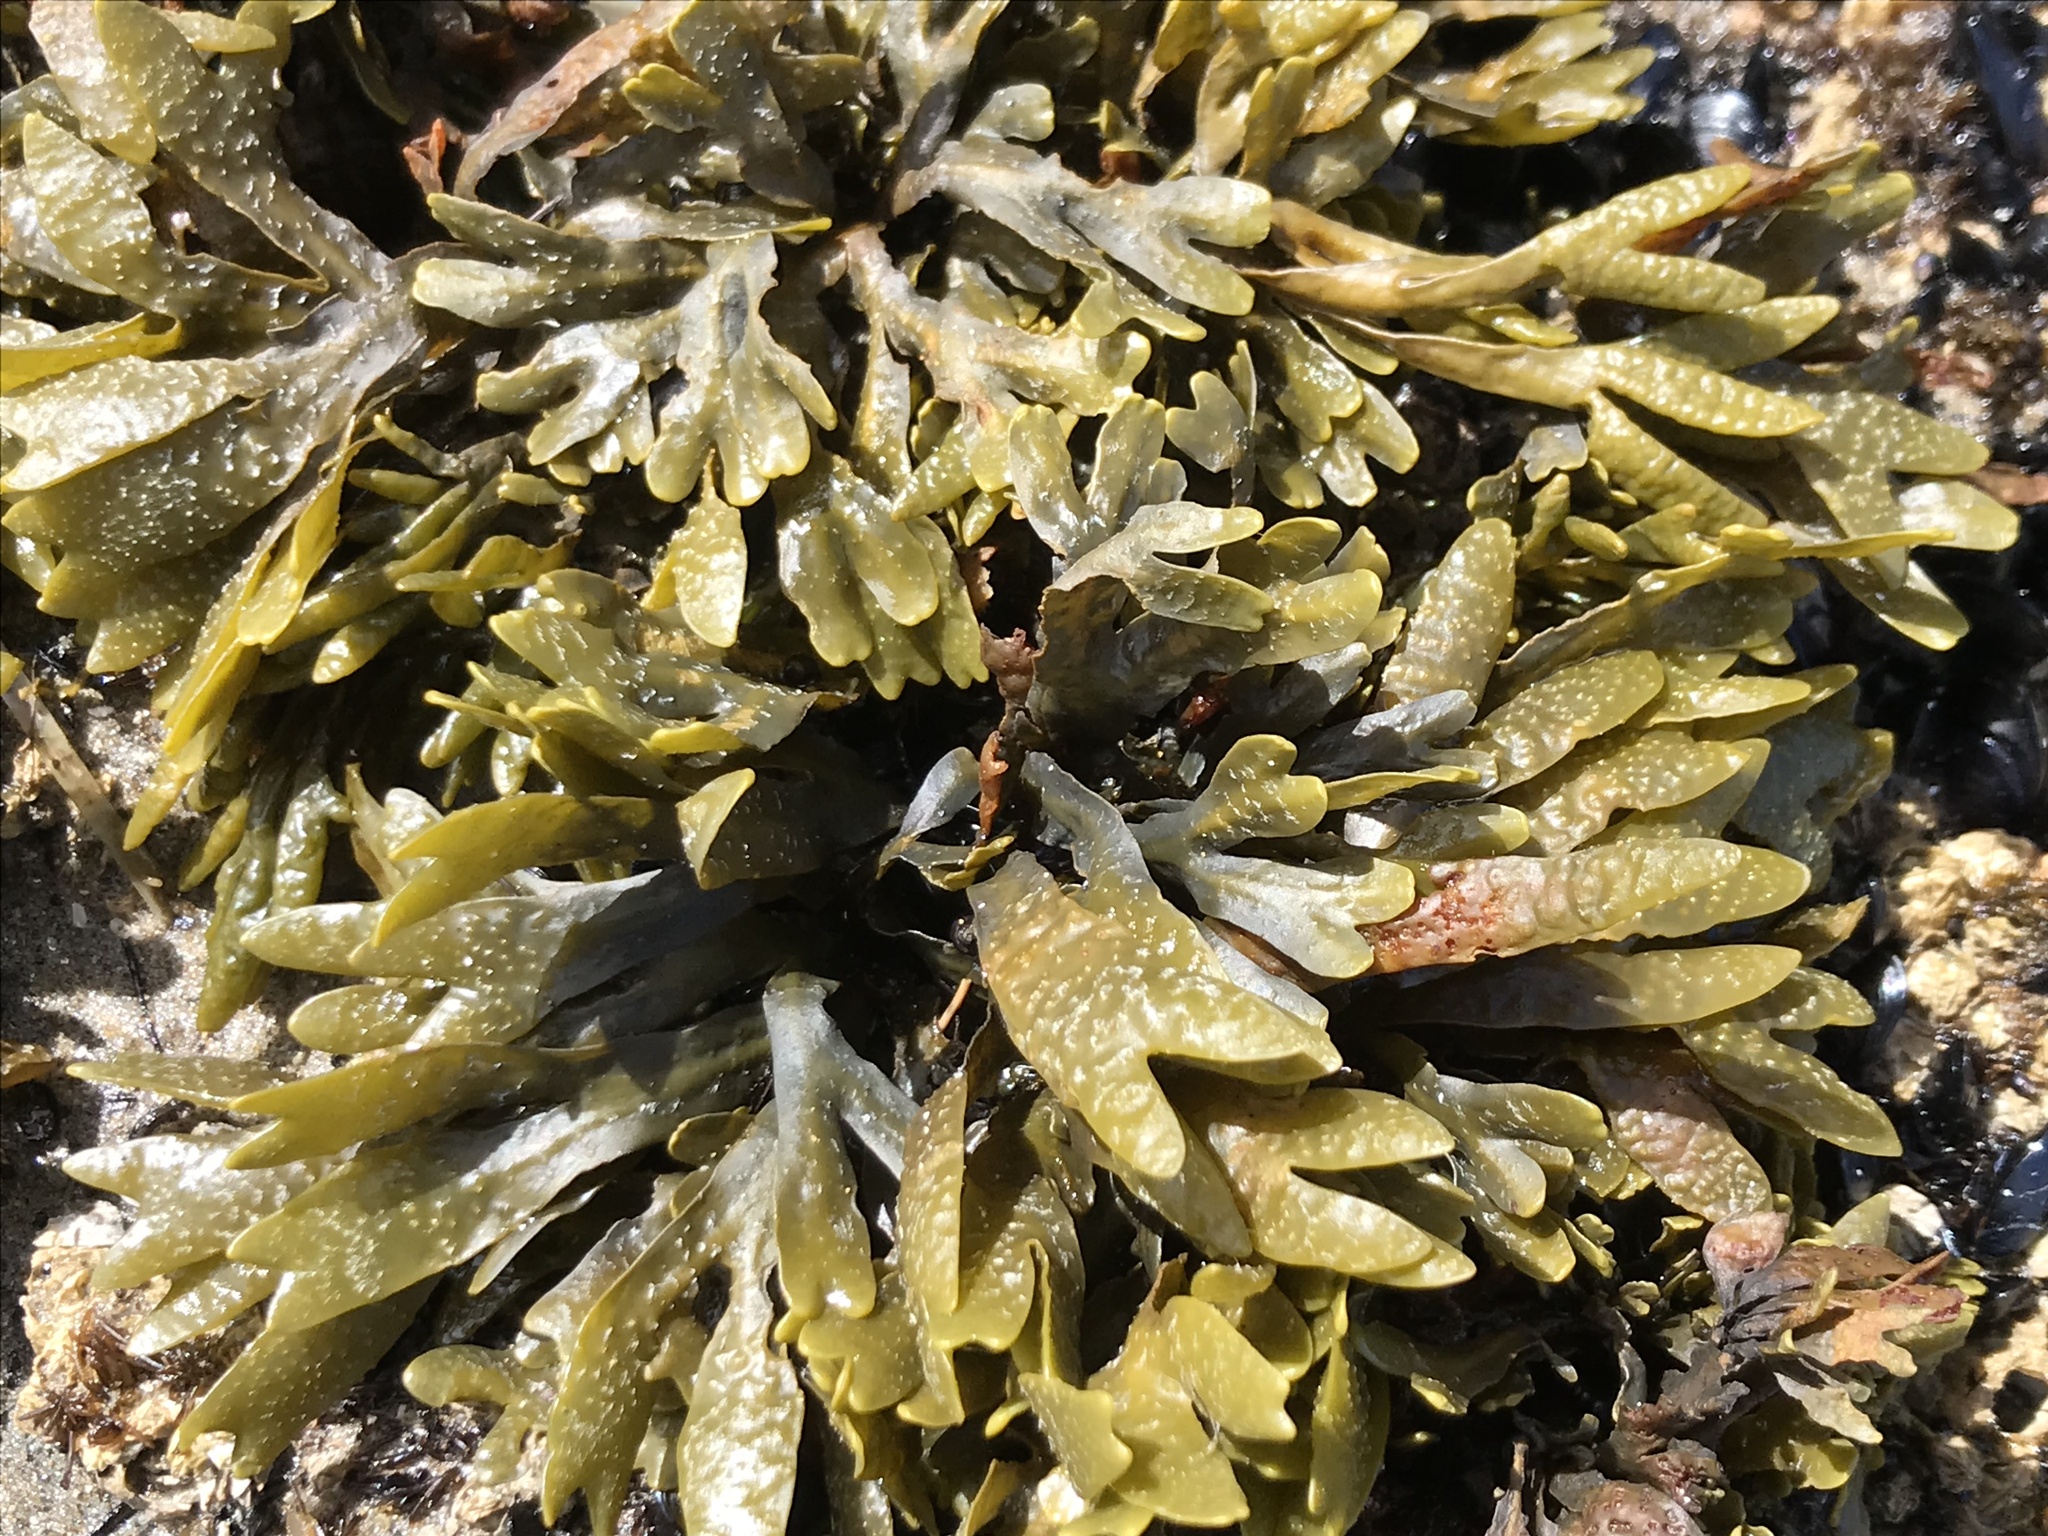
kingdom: Chromista
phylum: Ochrophyta
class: Phaeophyceae
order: Fucales
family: Fucaceae
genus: Fucus
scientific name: Fucus distichus
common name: Rockweed
